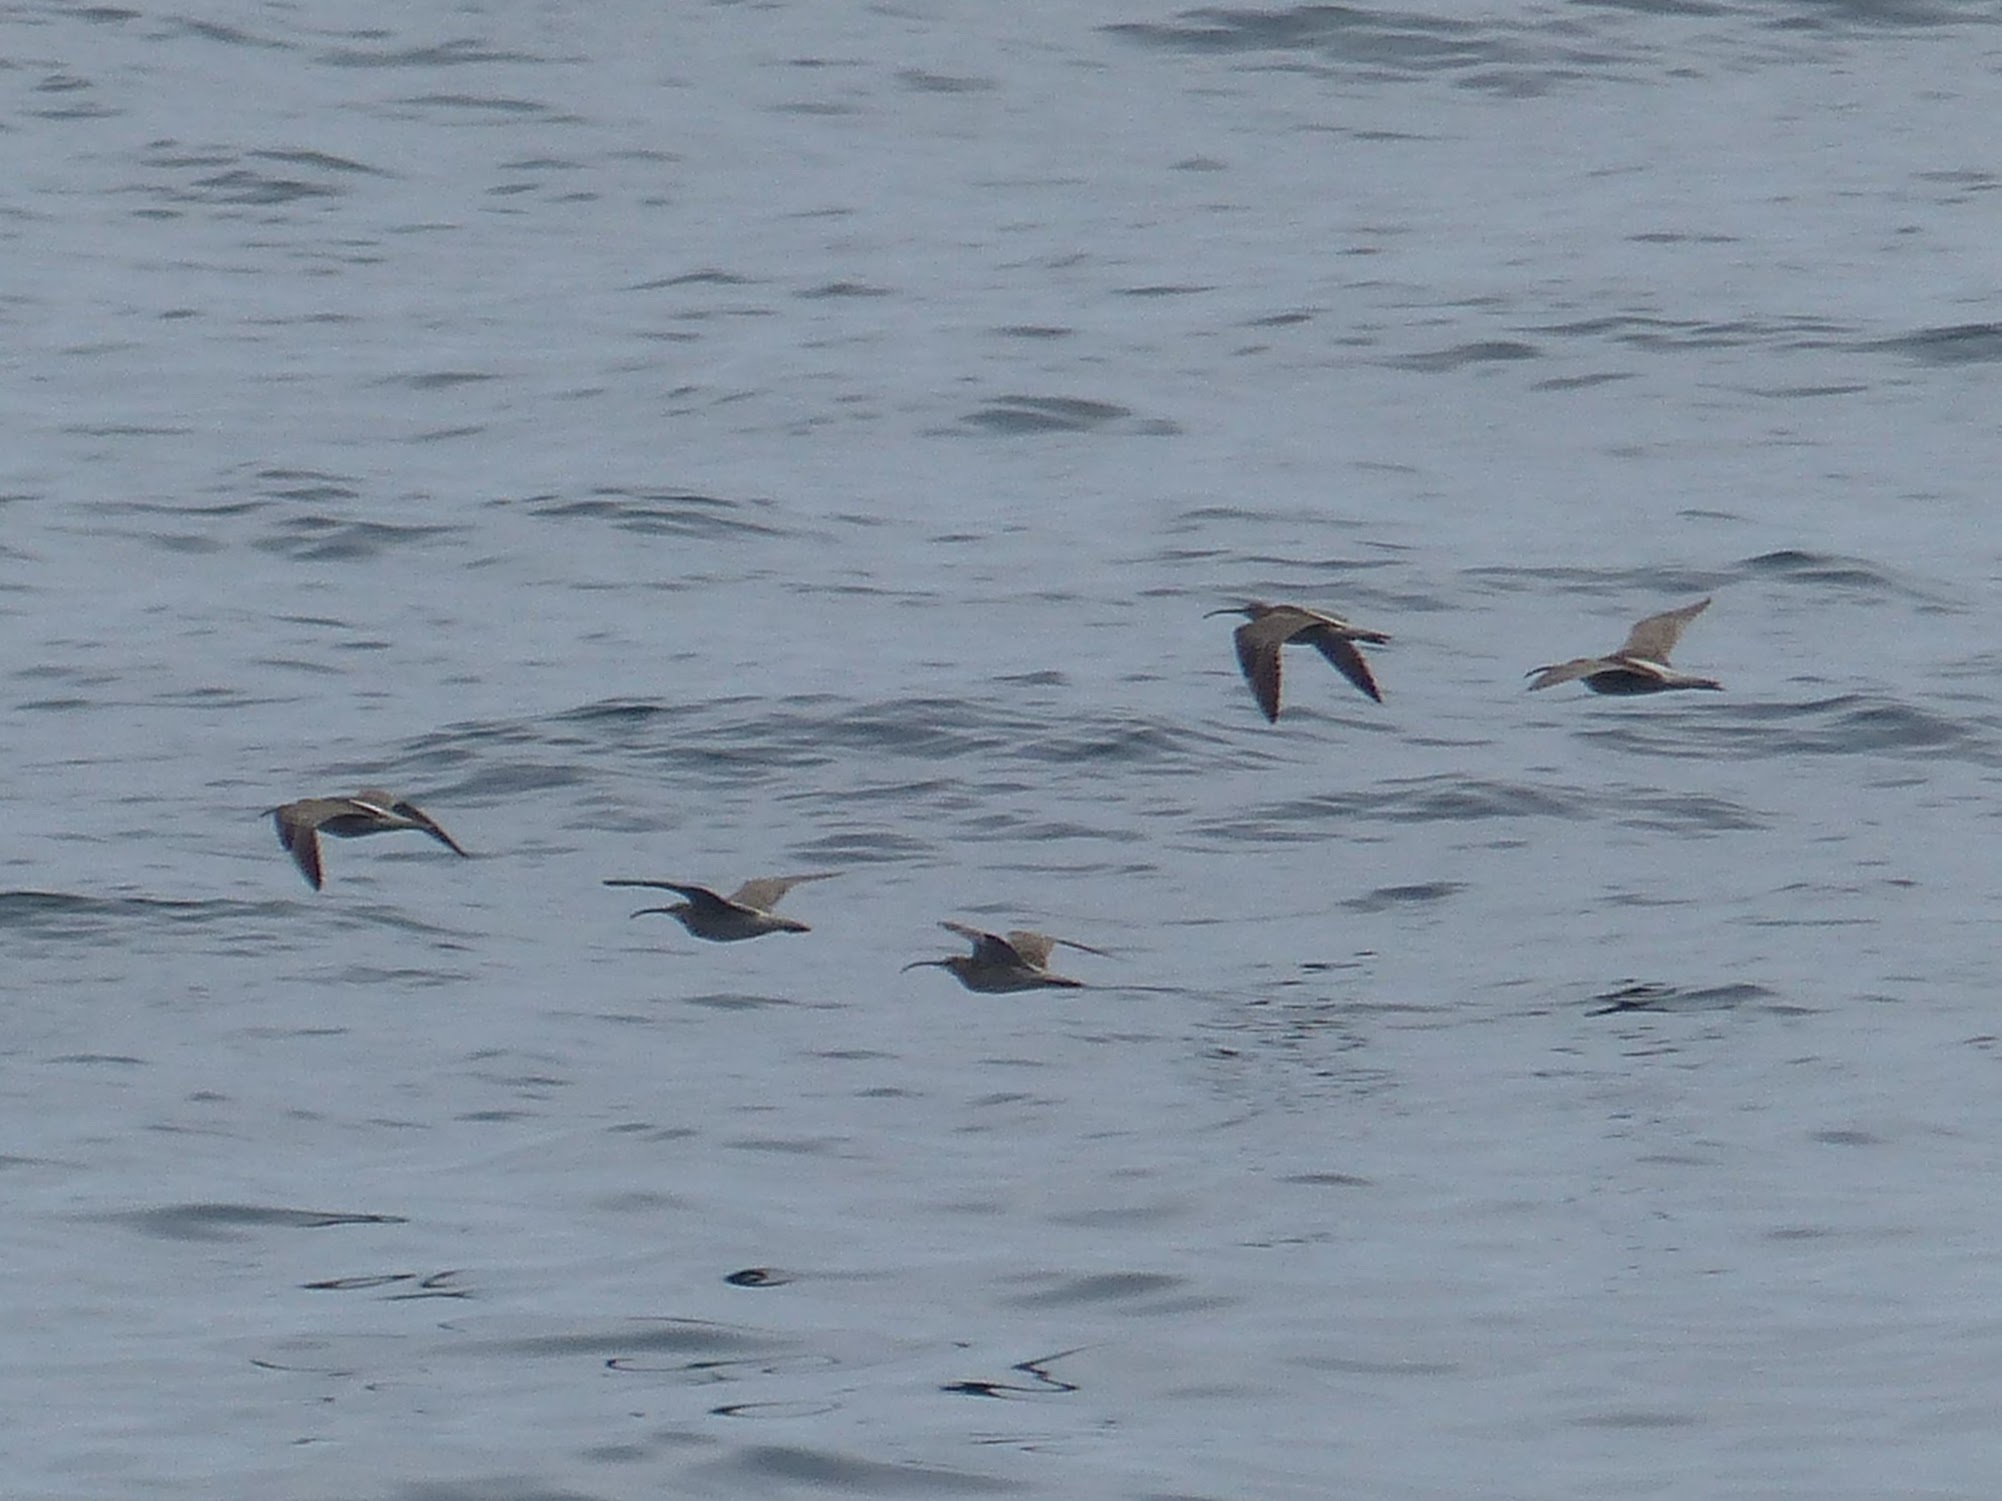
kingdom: Animalia
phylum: Chordata
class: Aves
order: Charadriiformes
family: Scolopacidae
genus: Numenius
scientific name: Numenius arquata
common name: Eurasian curlew
